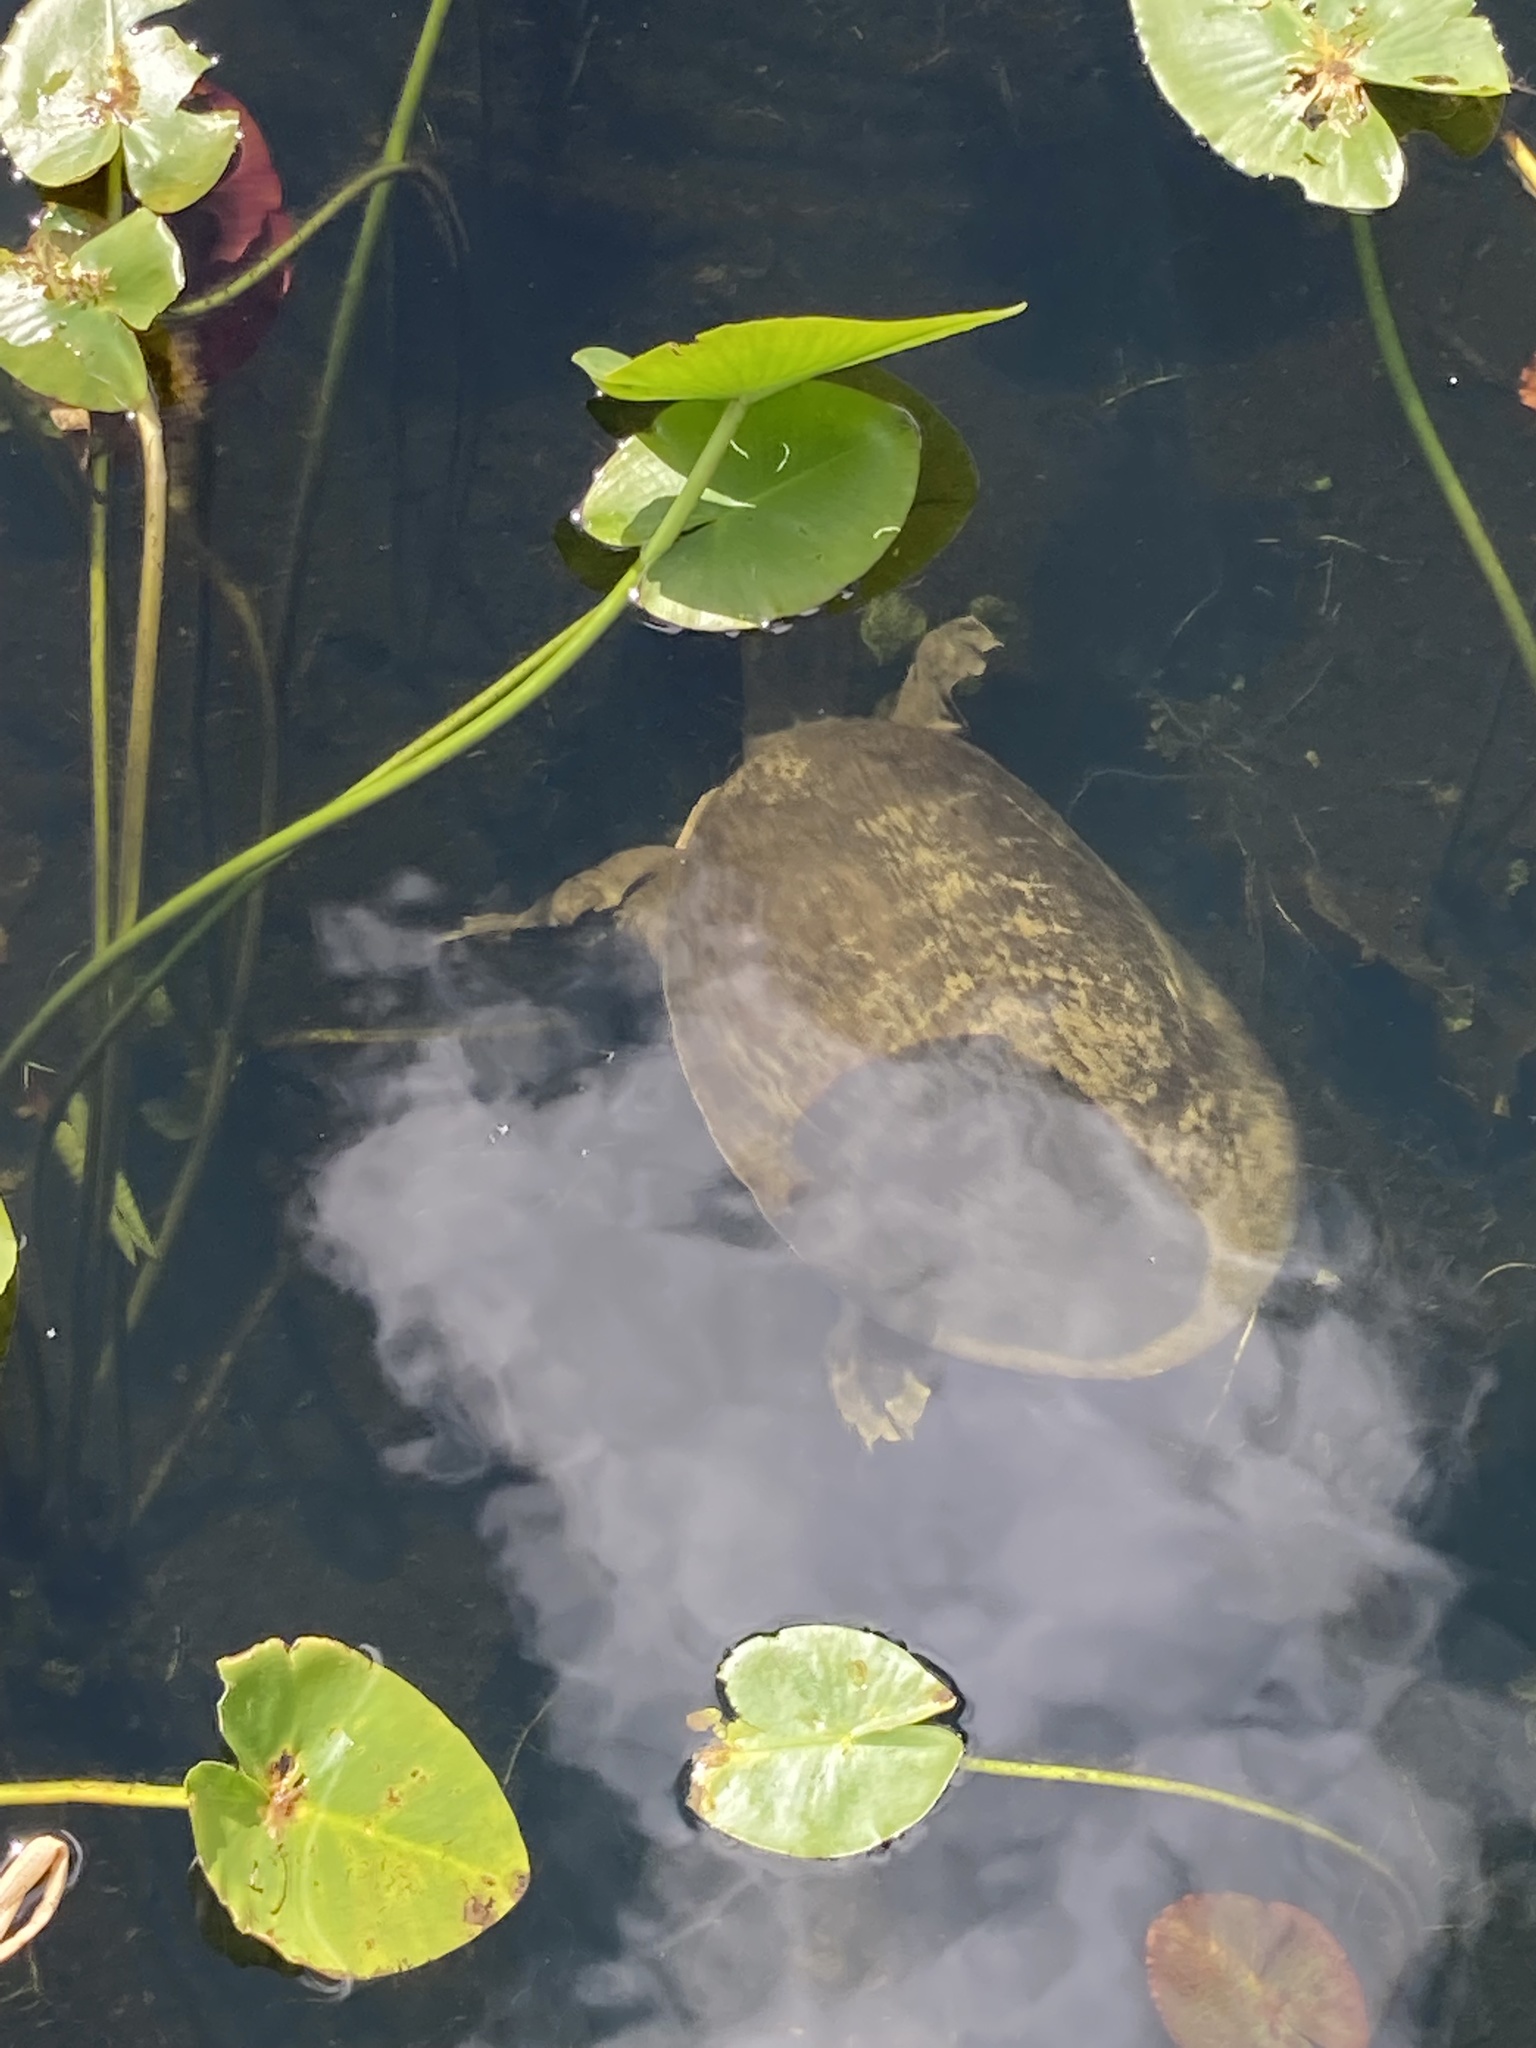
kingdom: Animalia
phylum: Chordata
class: Testudines
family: Trionychidae
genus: Apalone
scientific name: Apalone ferox
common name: Florida softshell turtle
